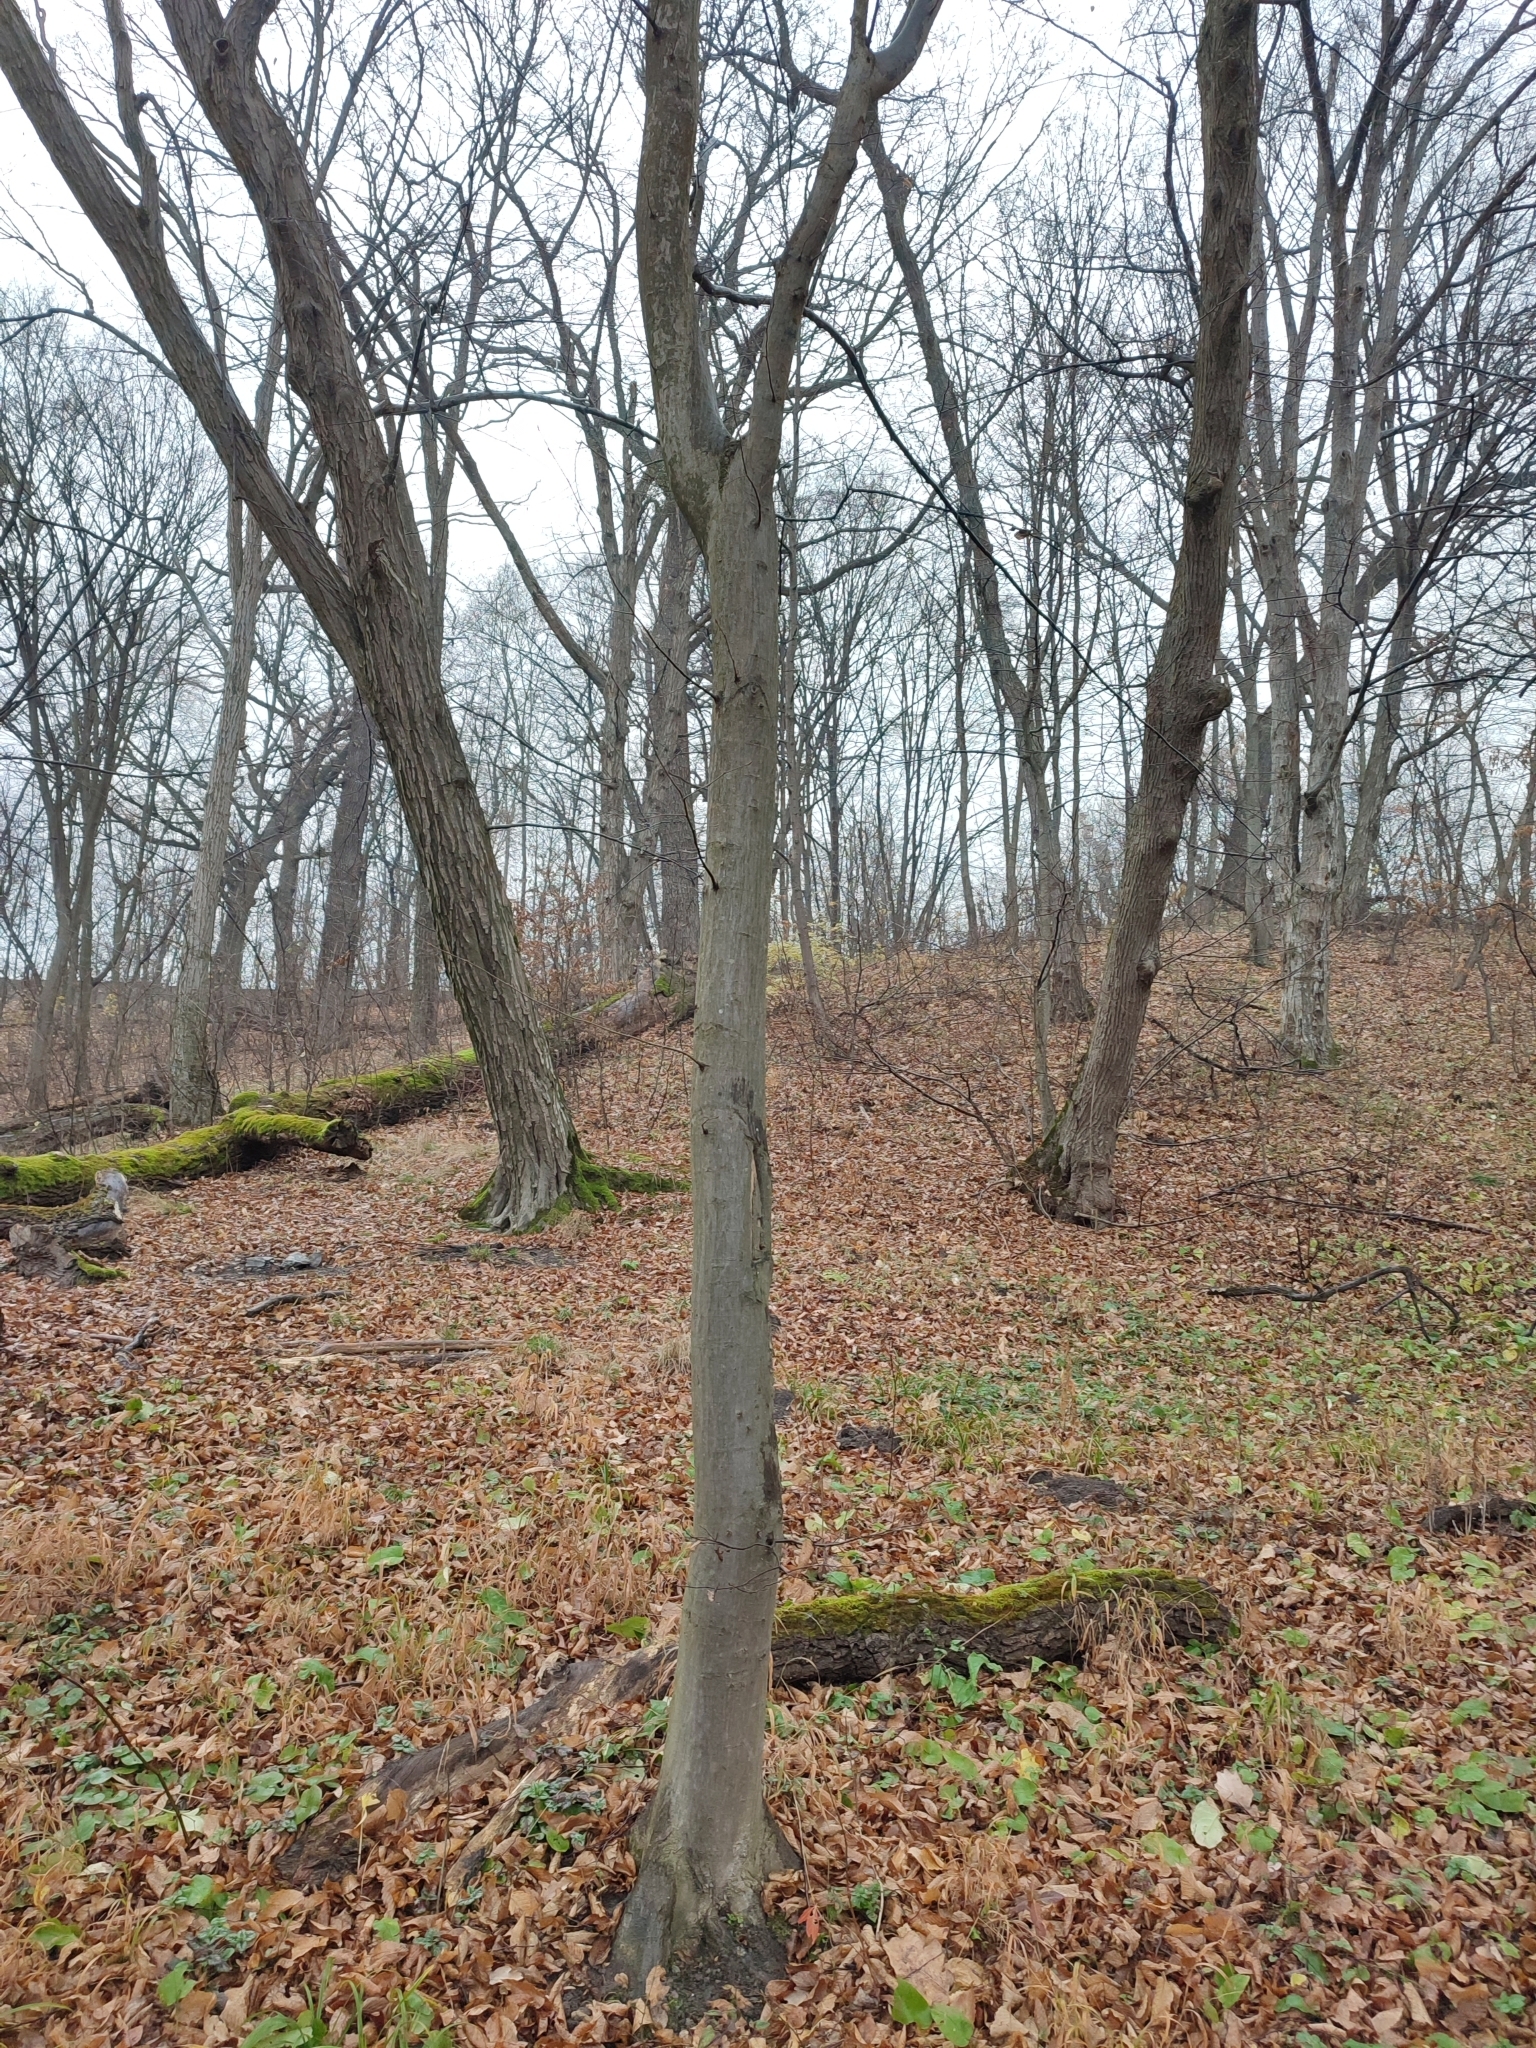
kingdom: Plantae
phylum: Tracheophyta
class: Magnoliopsida
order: Fagales
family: Betulaceae
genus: Carpinus
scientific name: Carpinus betulus
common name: Hornbeam
